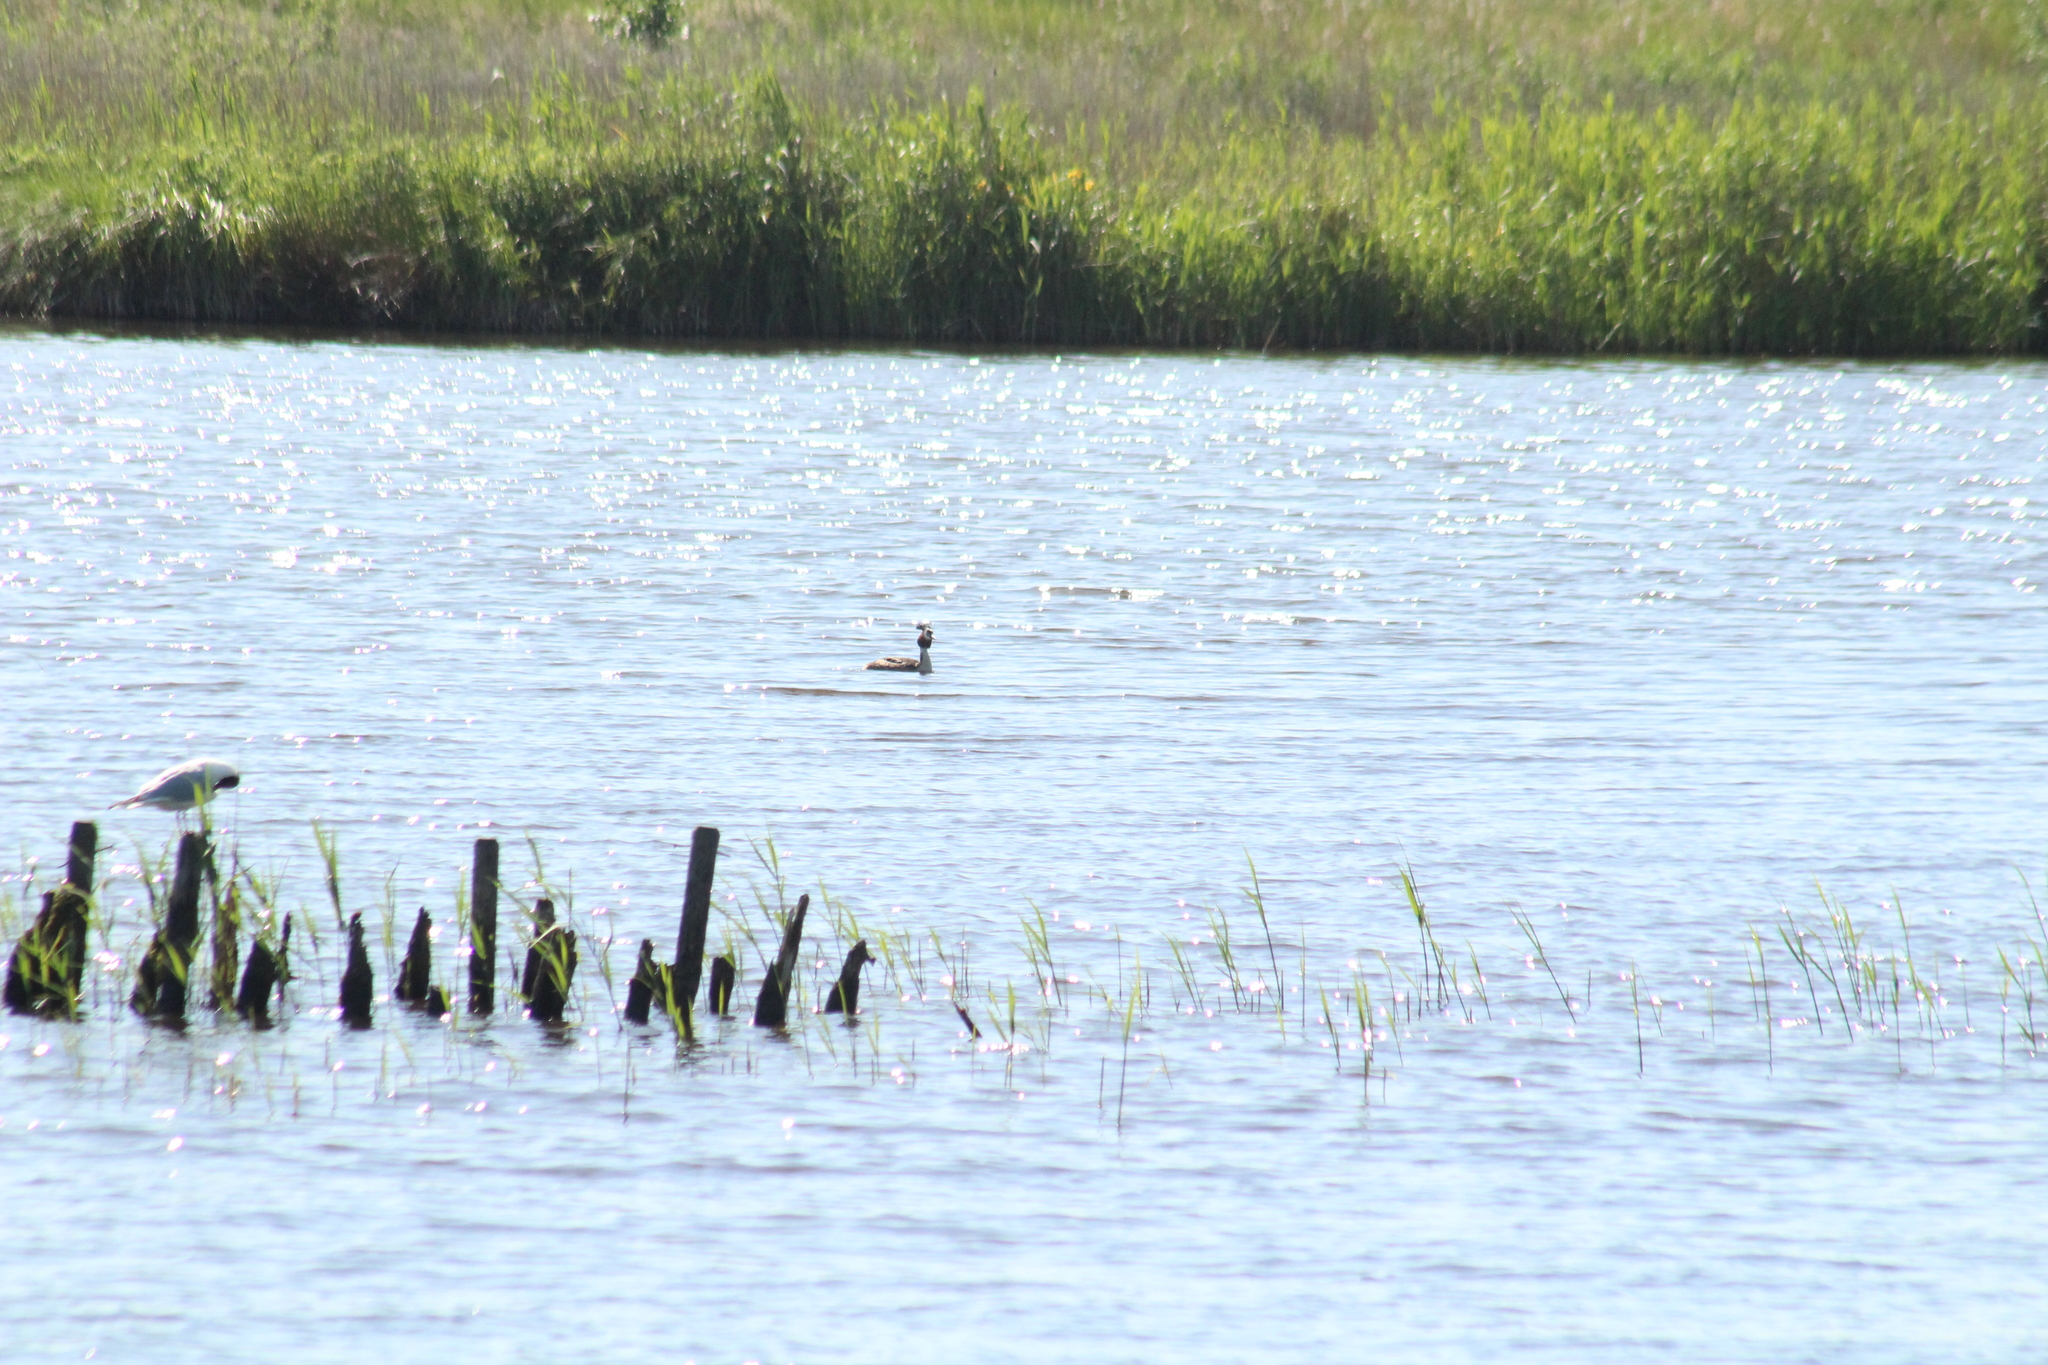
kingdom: Animalia
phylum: Chordata
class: Aves
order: Podicipediformes
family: Podicipedidae
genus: Podiceps
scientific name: Podiceps cristatus
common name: Great crested grebe
